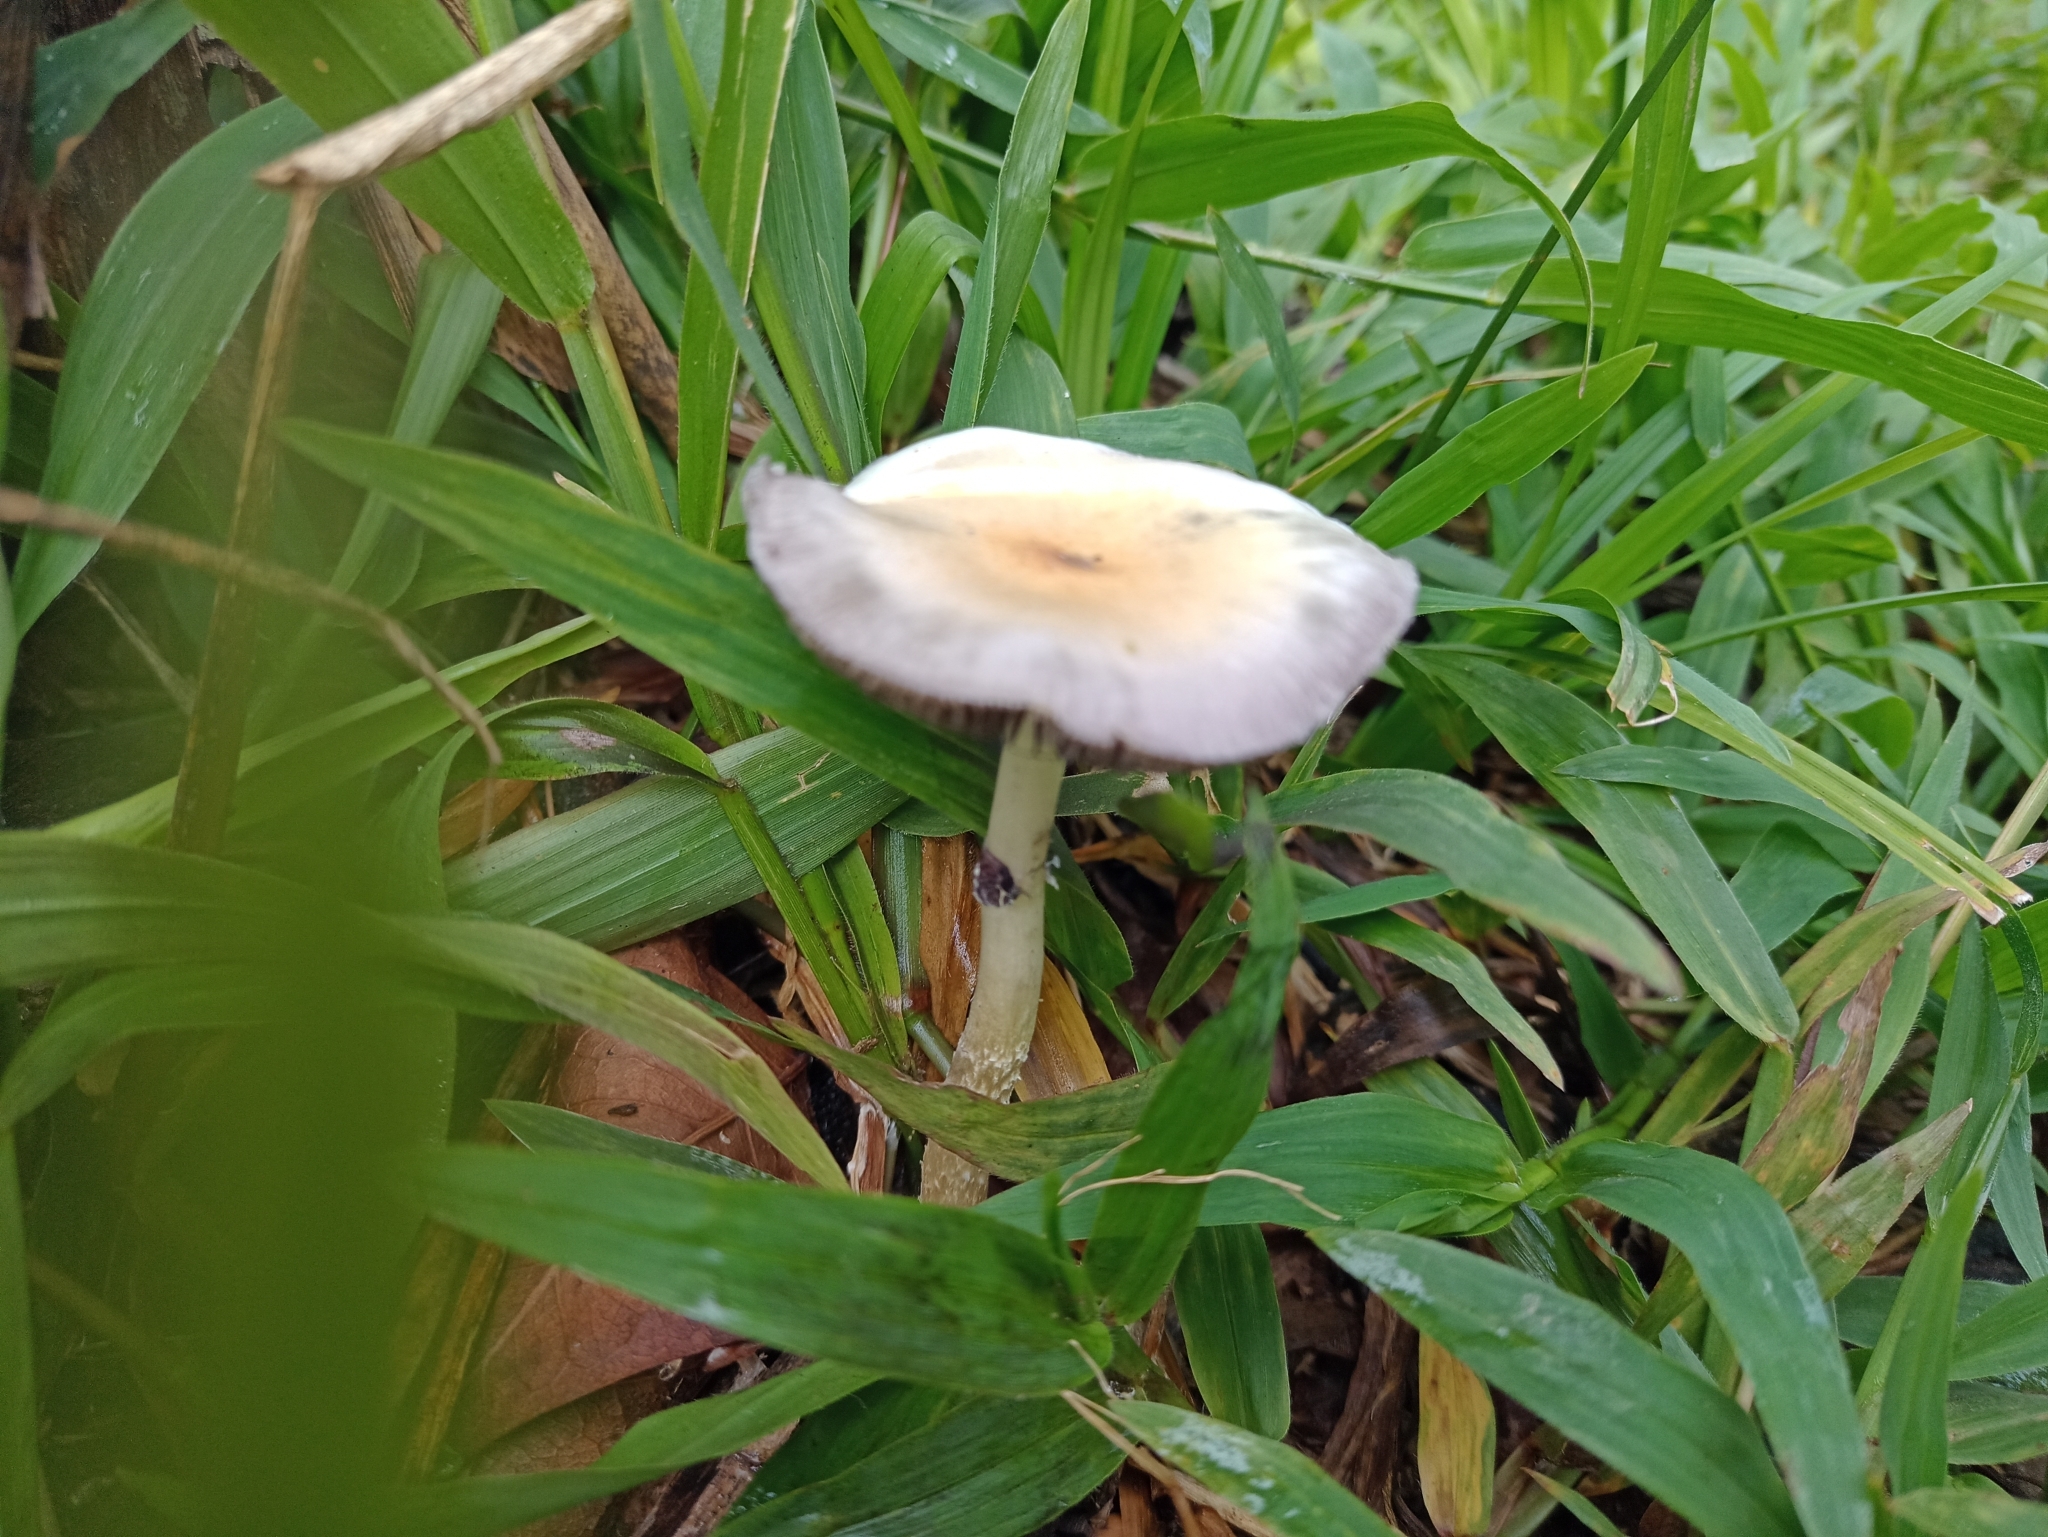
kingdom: Fungi
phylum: Basidiomycota
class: Agaricomycetes
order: Agaricales
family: Hymenogastraceae
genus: Psilocybe
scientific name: Psilocybe cubensis
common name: Golden brownie
